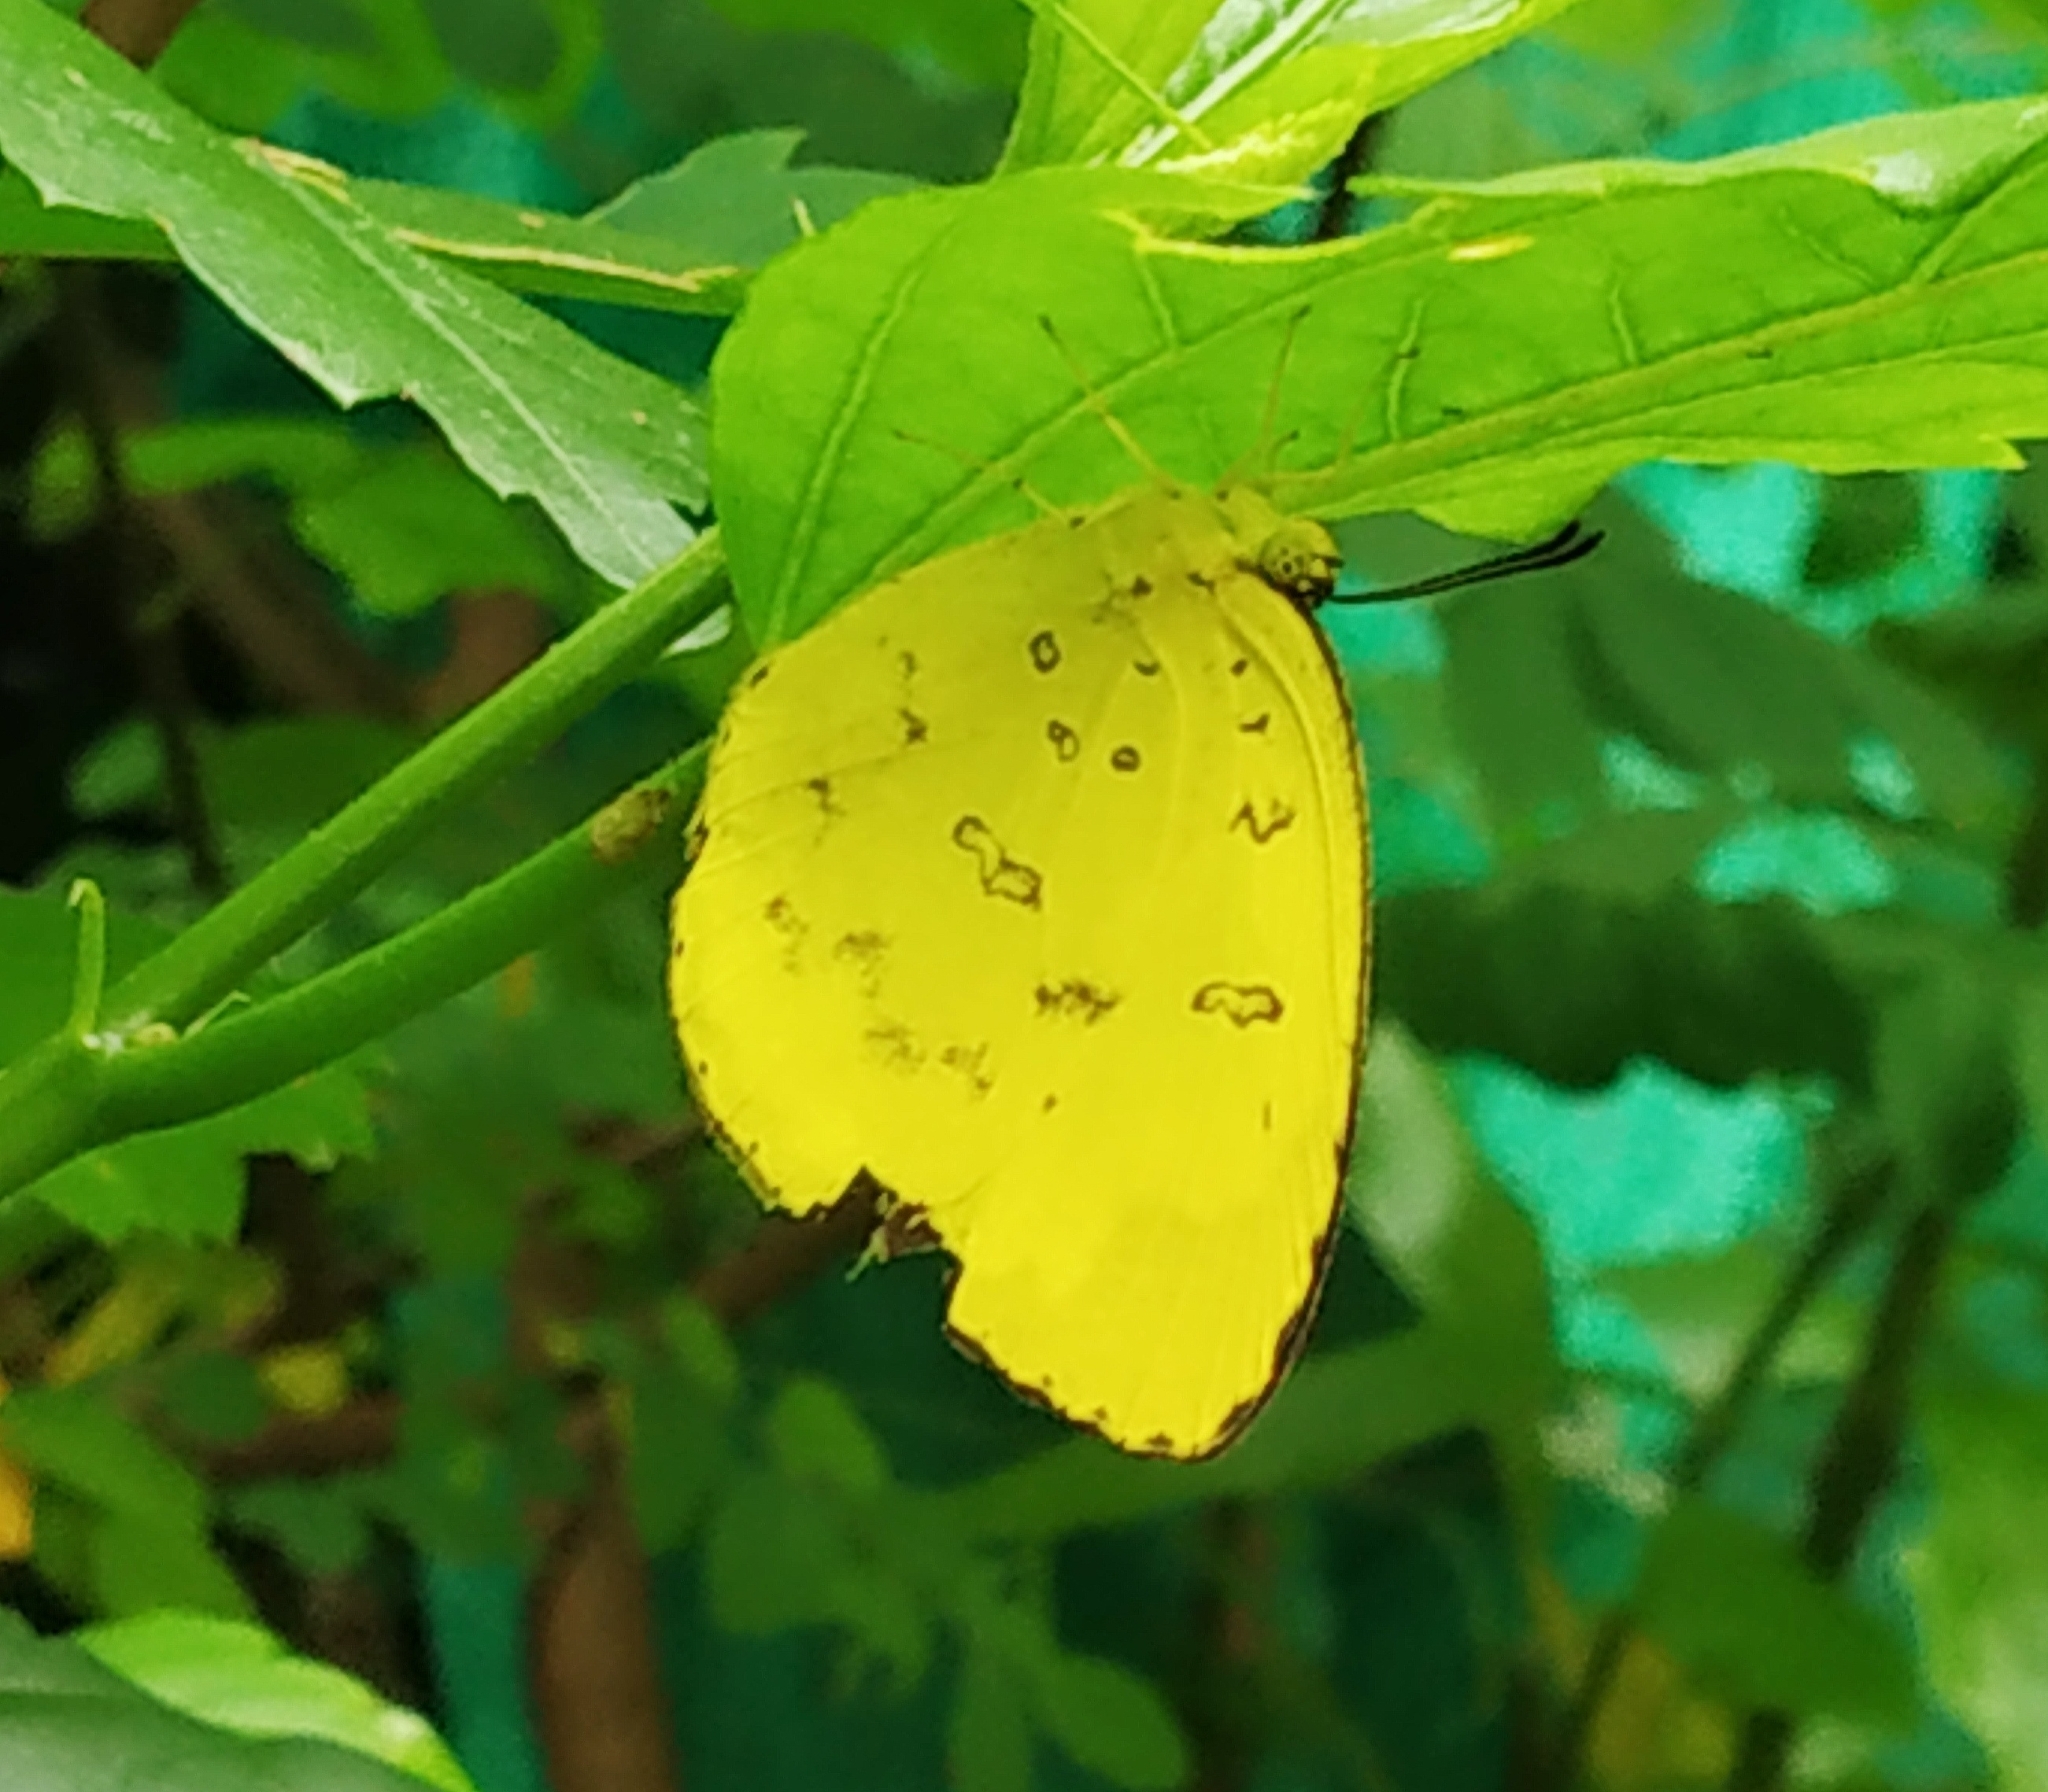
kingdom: Animalia
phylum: Arthropoda
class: Insecta
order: Lepidoptera
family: Pieridae
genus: Eurema
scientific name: Eurema blanda
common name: Three-spot grass yellow
